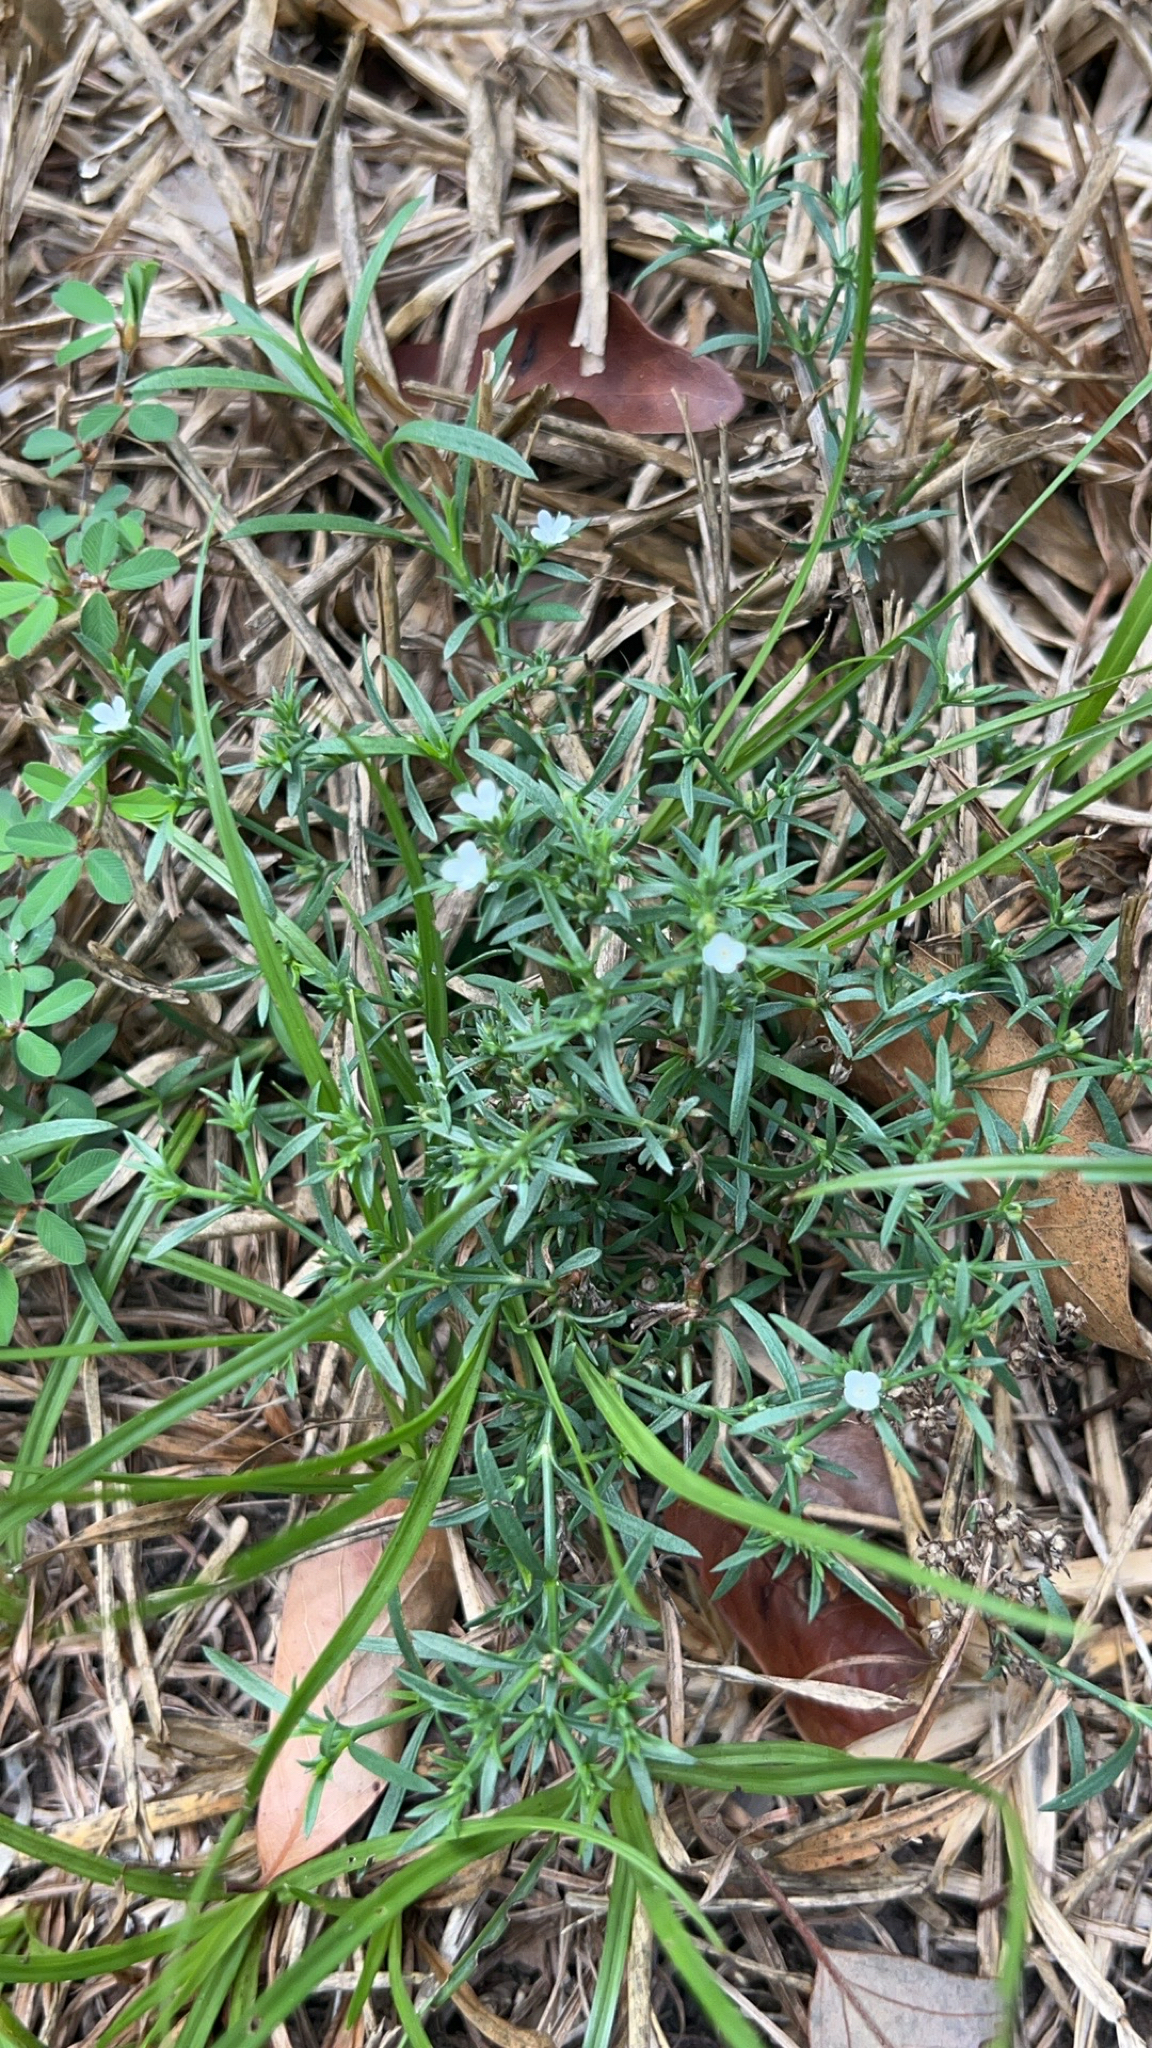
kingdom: Plantae
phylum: Tracheophyta
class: Magnoliopsida
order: Lamiales
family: Tetrachondraceae
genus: Polypremum
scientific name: Polypremum procumbens
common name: Juniper-leaf
